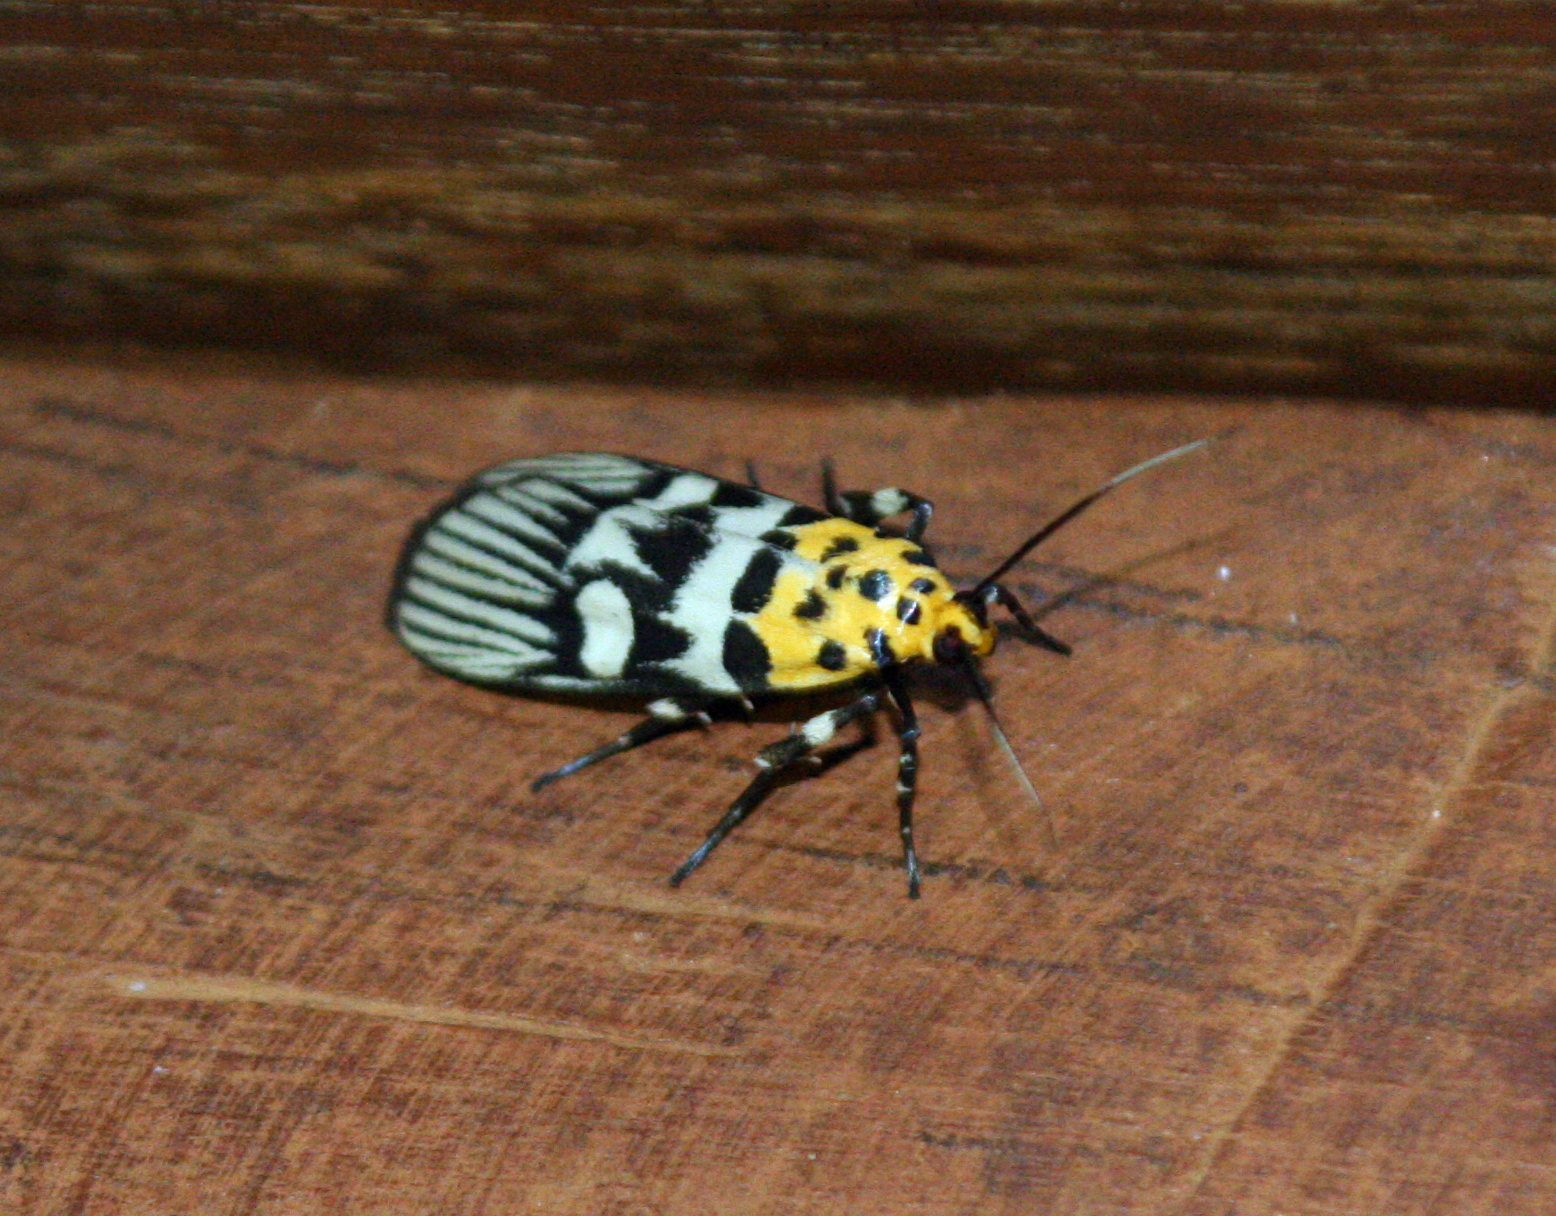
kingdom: Animalia
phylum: Arthropoda
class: Insecta
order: Lepidoptera
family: Pyralidae
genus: Vitessa
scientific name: Vitessa suradeva
